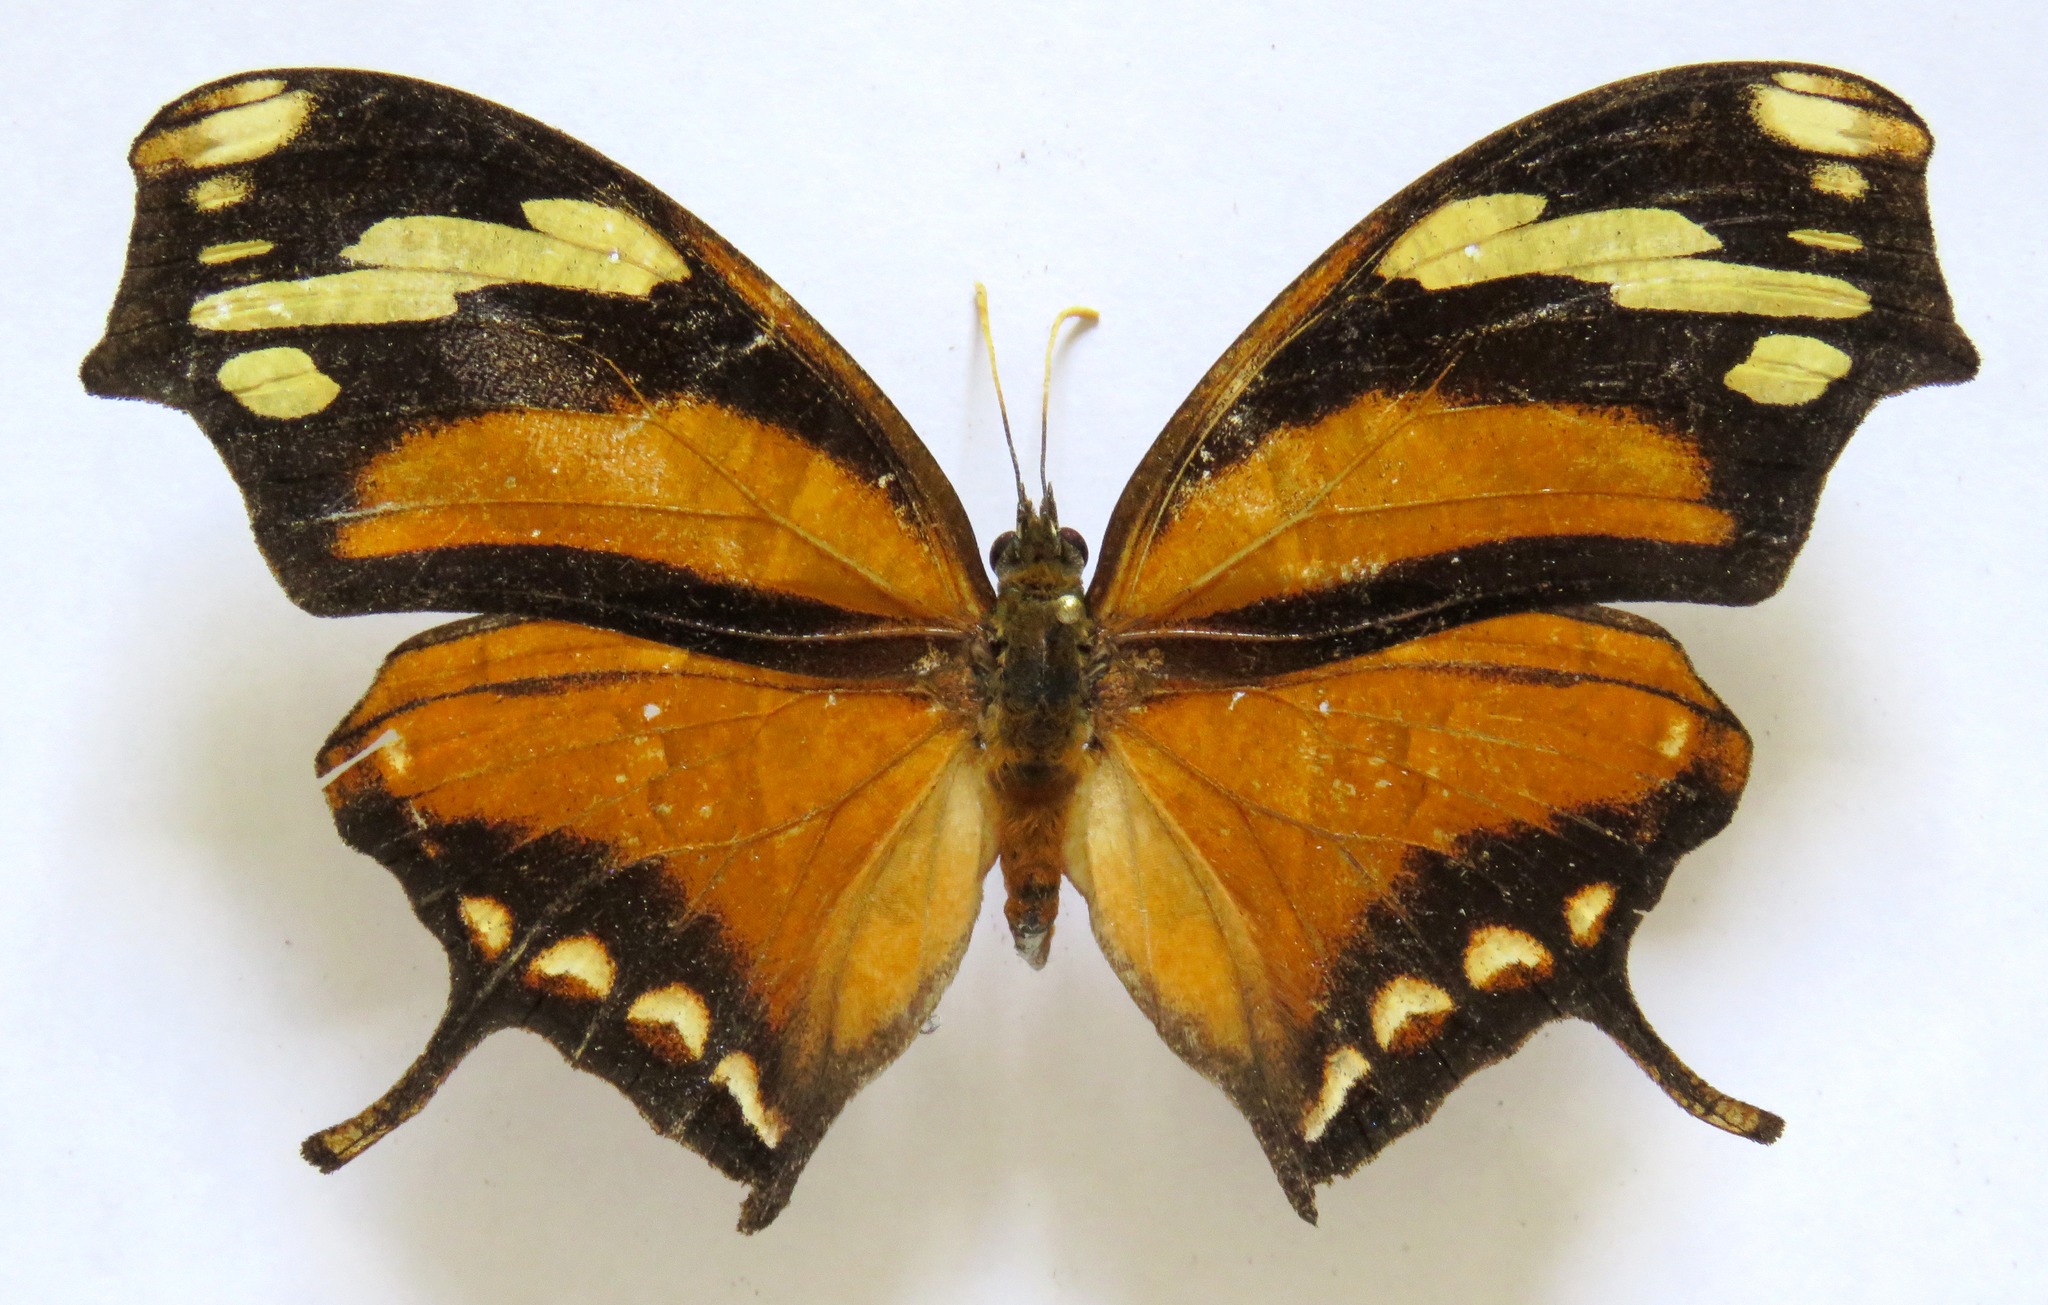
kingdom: Animalia
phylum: Arthropoda
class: Insecta
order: Lepidoptera
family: Nymphalidae
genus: Consul
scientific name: Consul fabius
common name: Tiger leafwing
